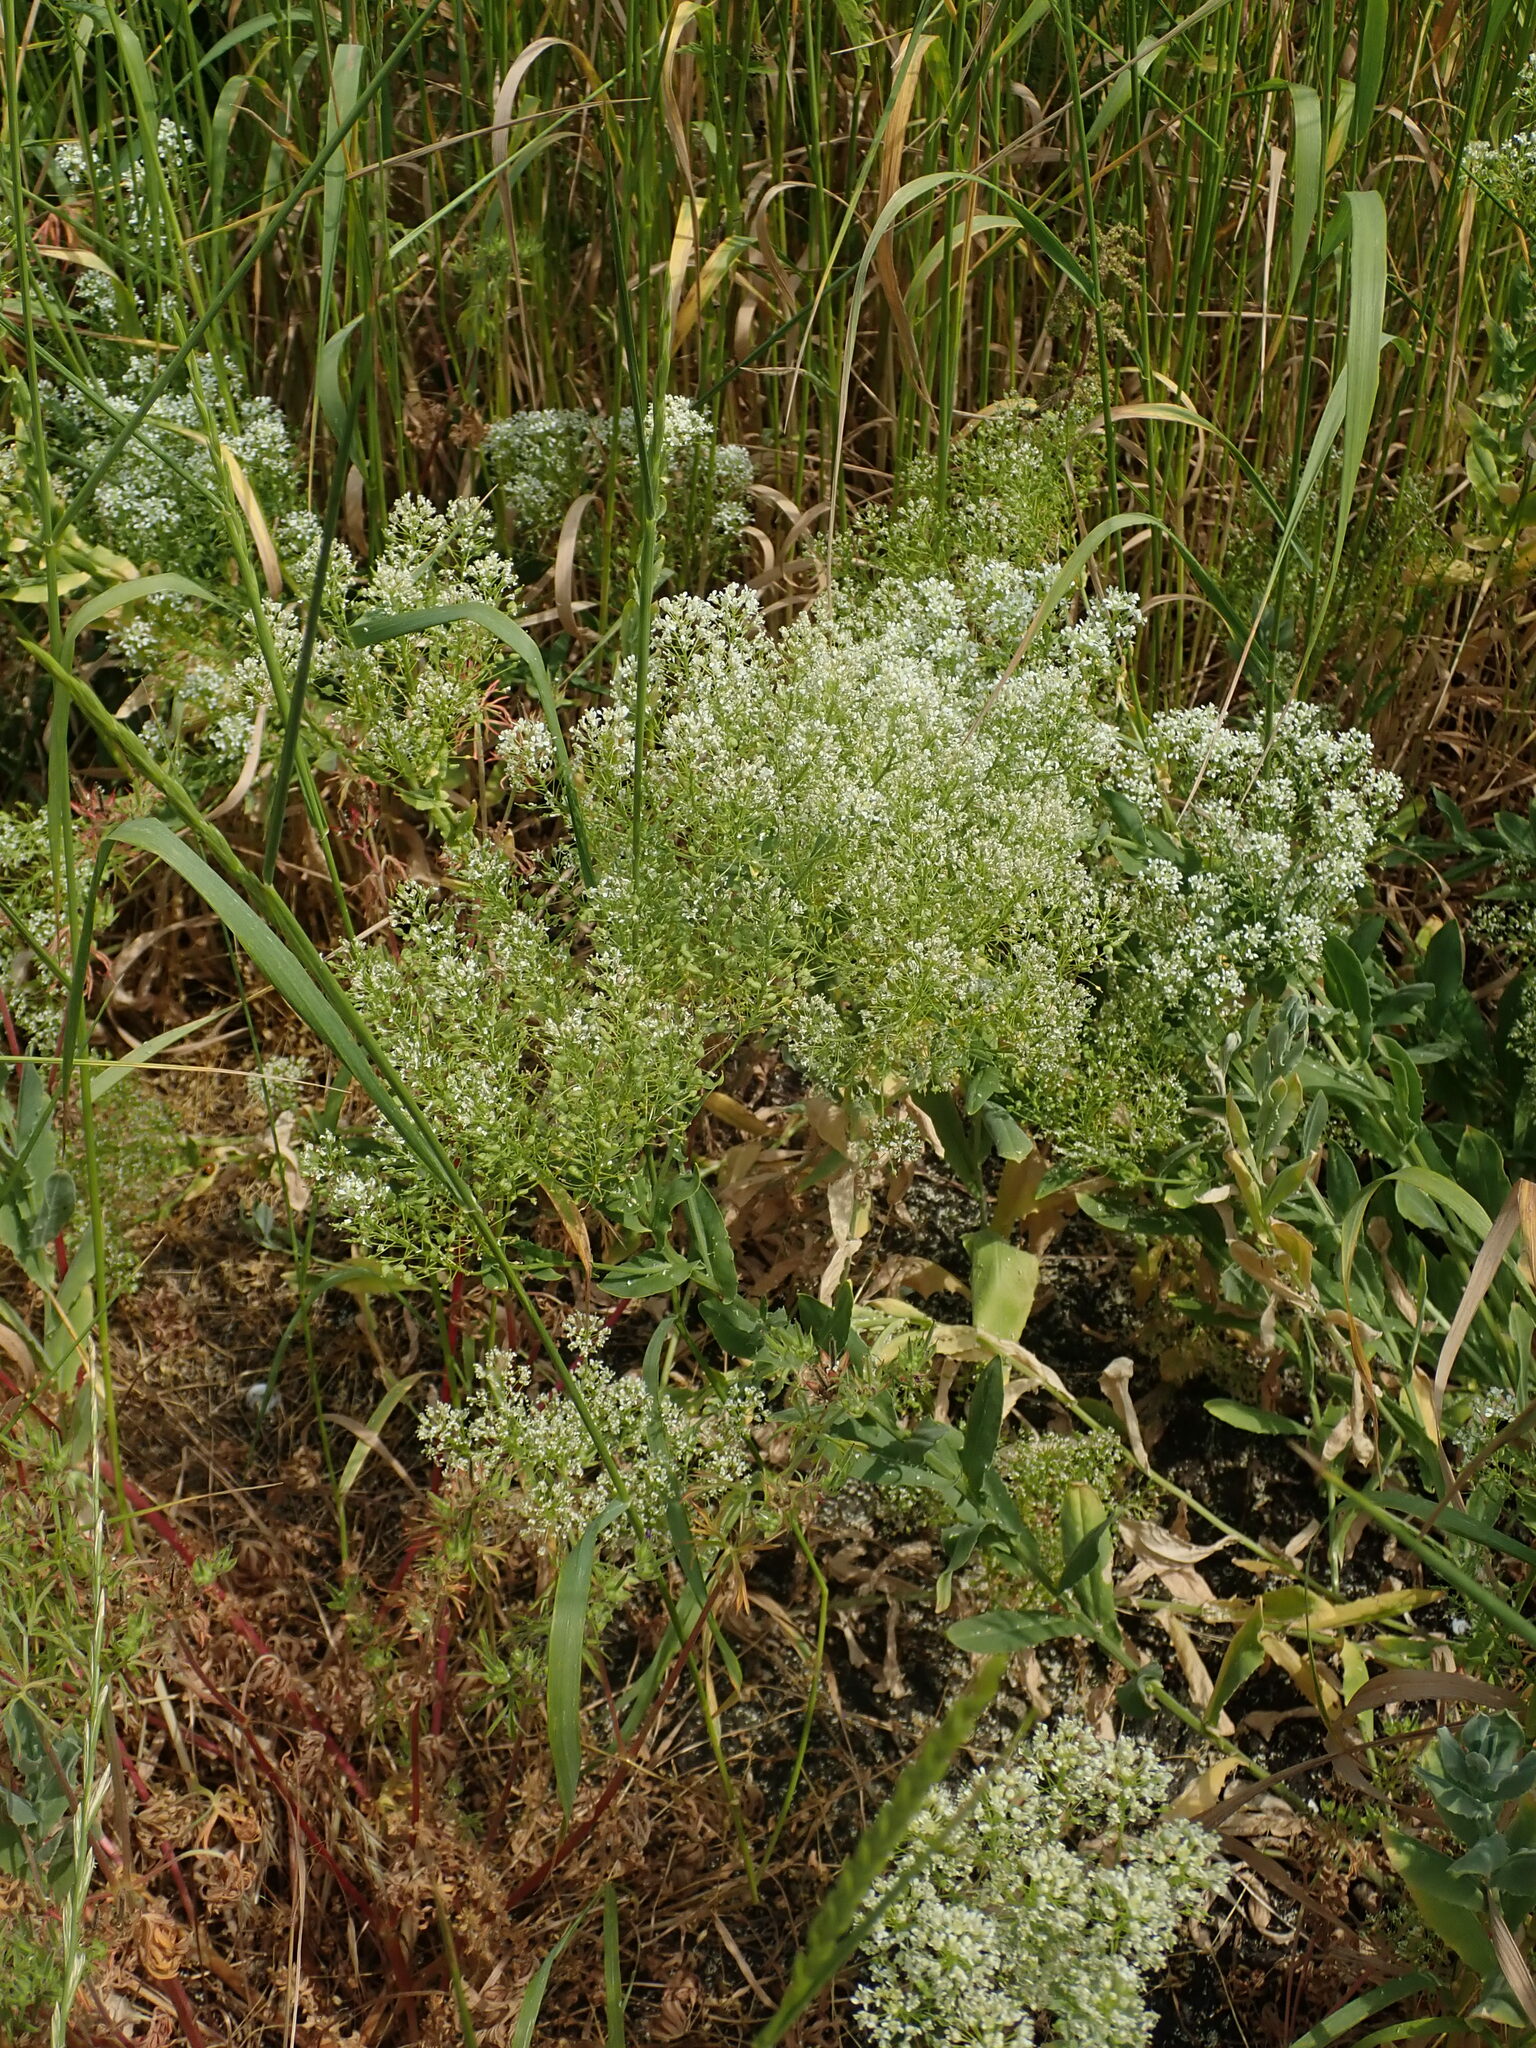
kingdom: Plantae
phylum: Tracheophyta
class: Magnoliopsida
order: Brassicales
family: Brassicaceae
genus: Lepidium
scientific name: Lepidium draba
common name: Hoary cress
